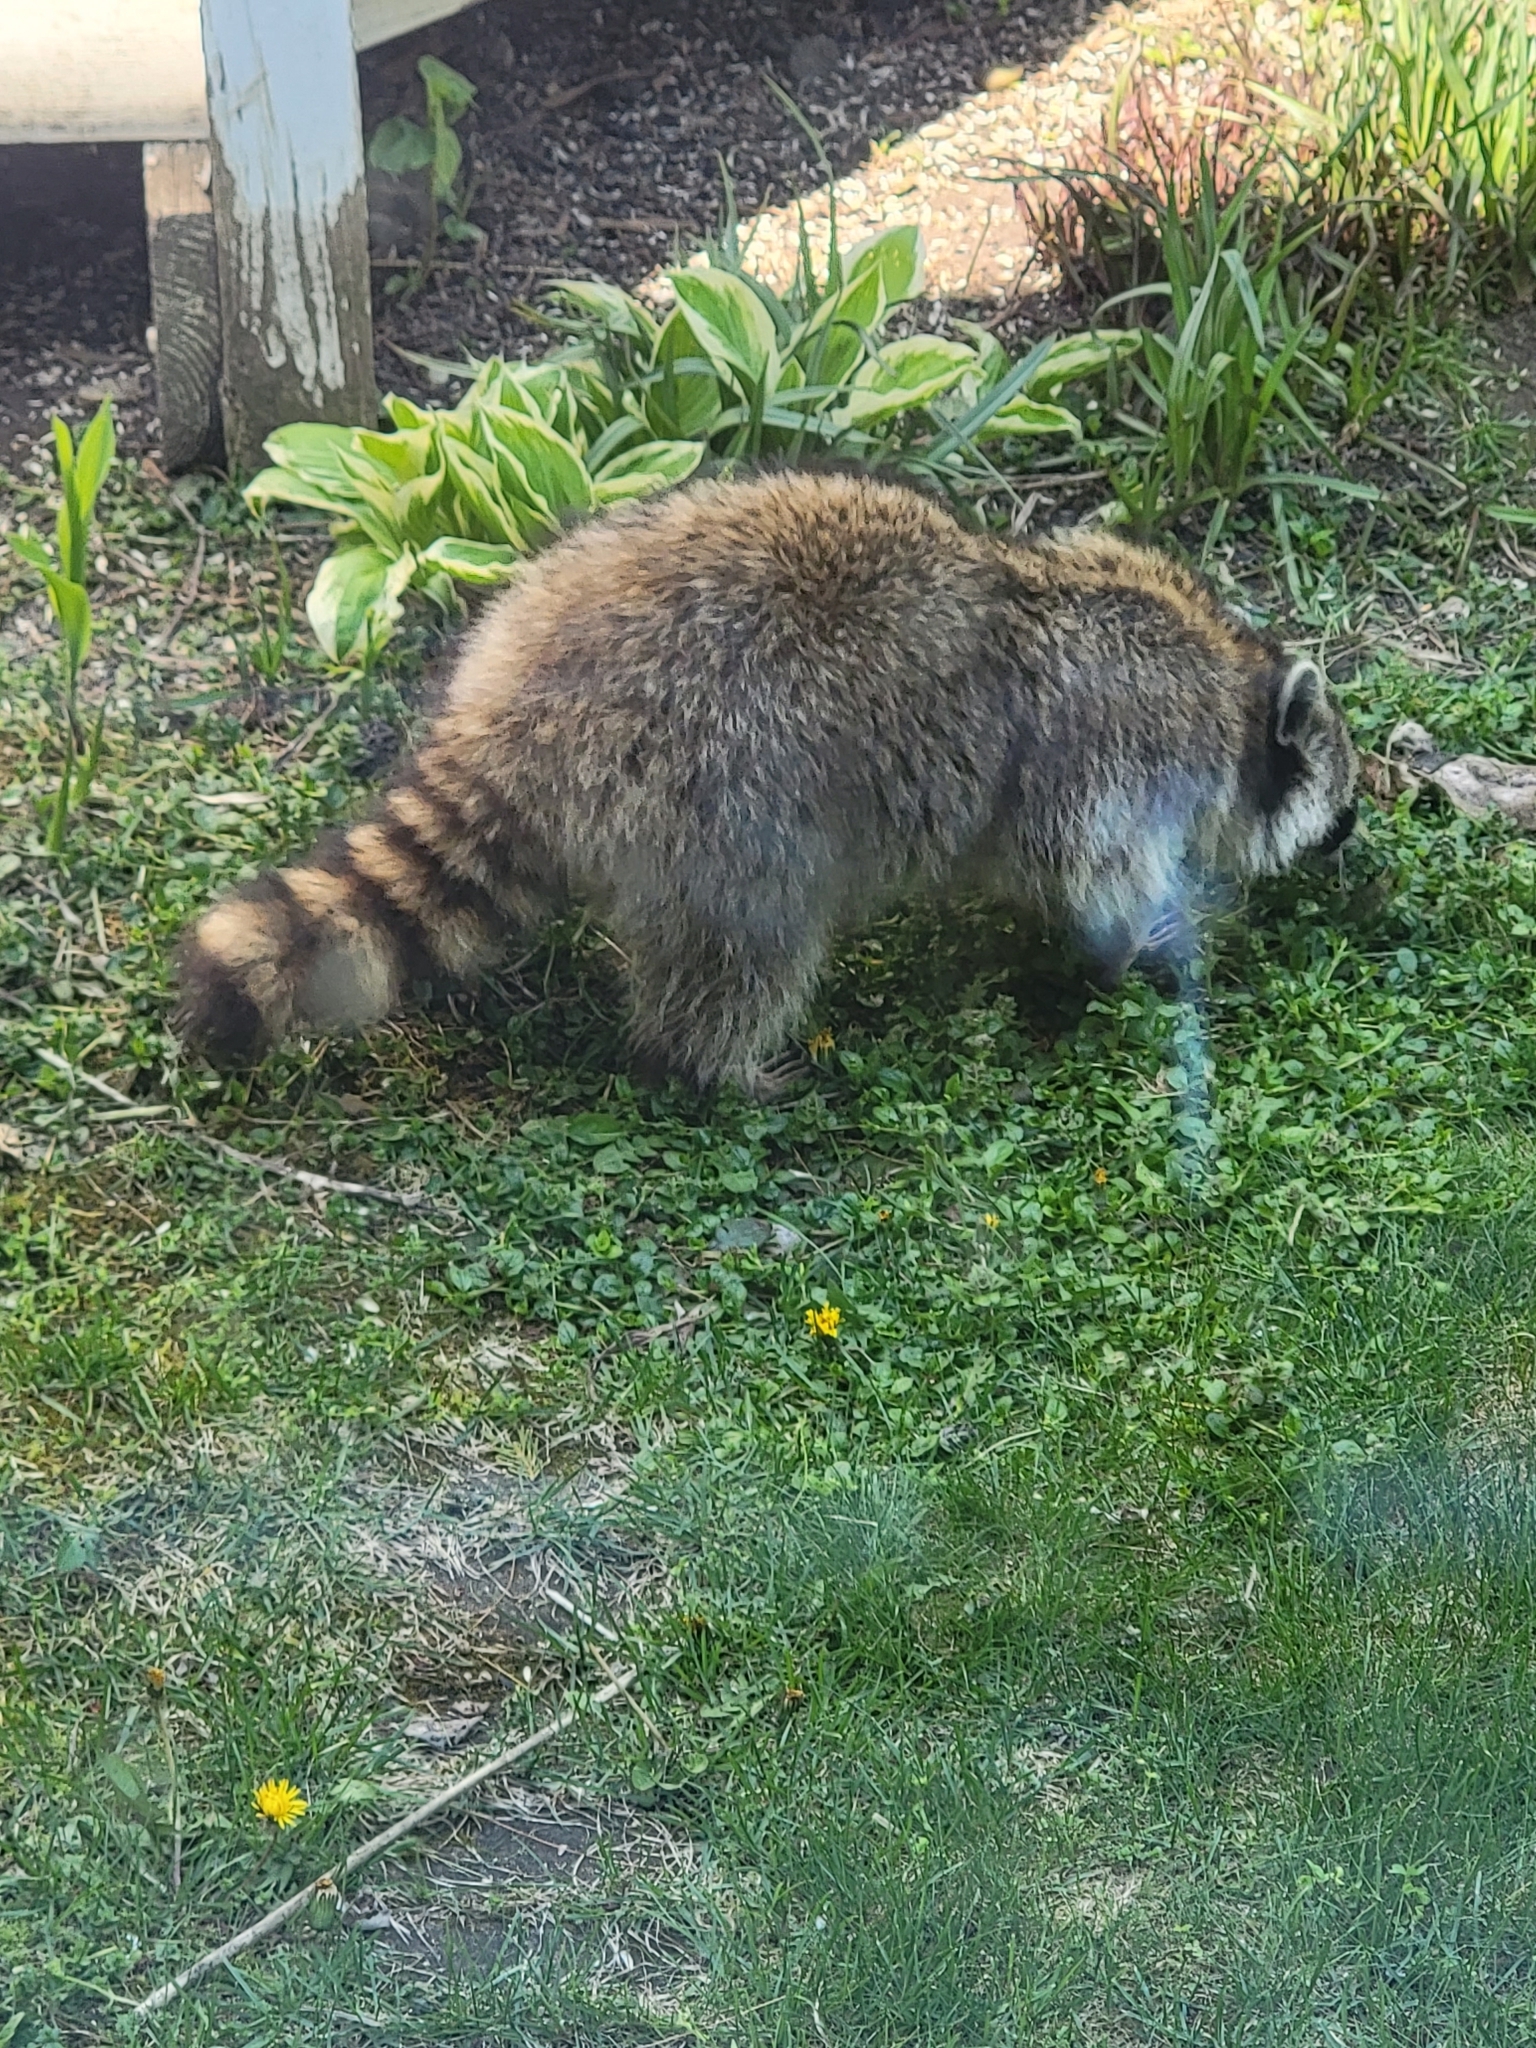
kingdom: Animalia
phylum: Chordata
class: Mammalia
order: Carnivora
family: Procyonidae
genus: Procyon
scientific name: Procyon lotor
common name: Raccoon
